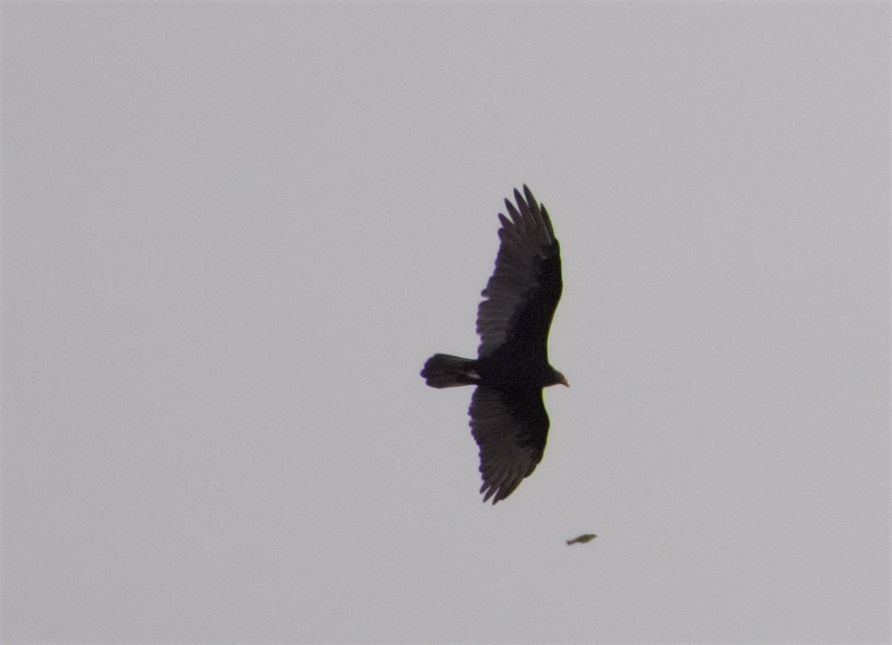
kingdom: Animalia
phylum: Chordata
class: Aves
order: Accipitriformes
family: Cathartidae
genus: Cathartes
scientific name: Cathartes aura
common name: Turkey vulture
